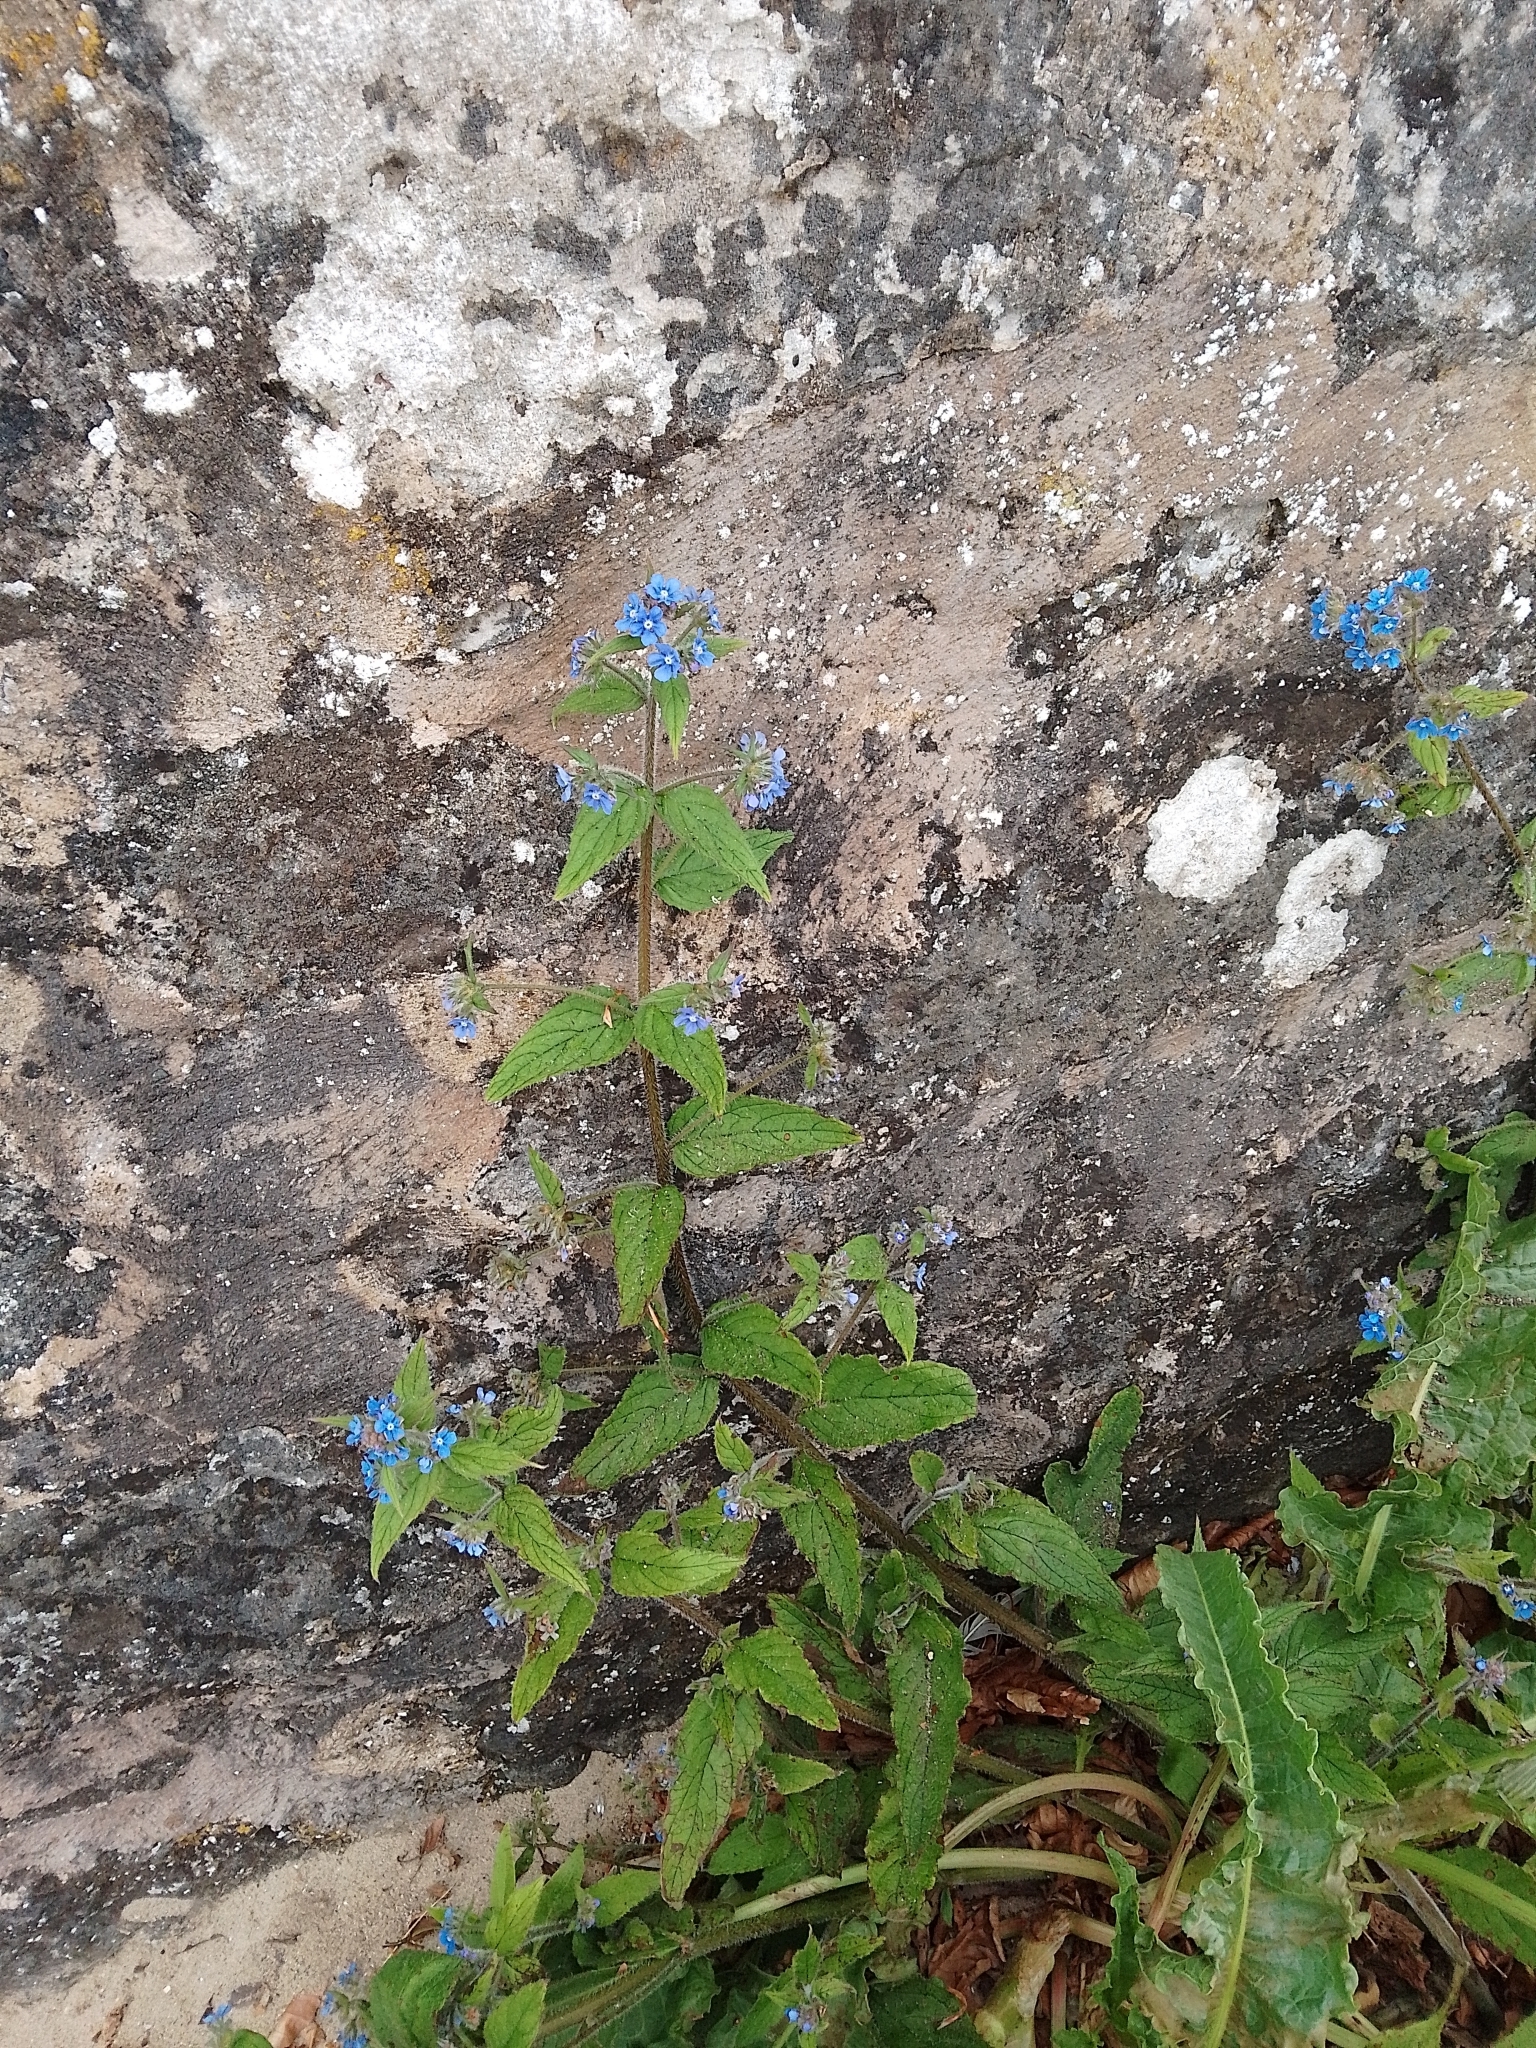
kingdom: Plantae
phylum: Tracheophyta
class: Magnoliopsida
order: Boraginales
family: Boraginaceae
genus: Pentaglottis
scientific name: Pentaglottis sempervirens
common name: Green alkanet
